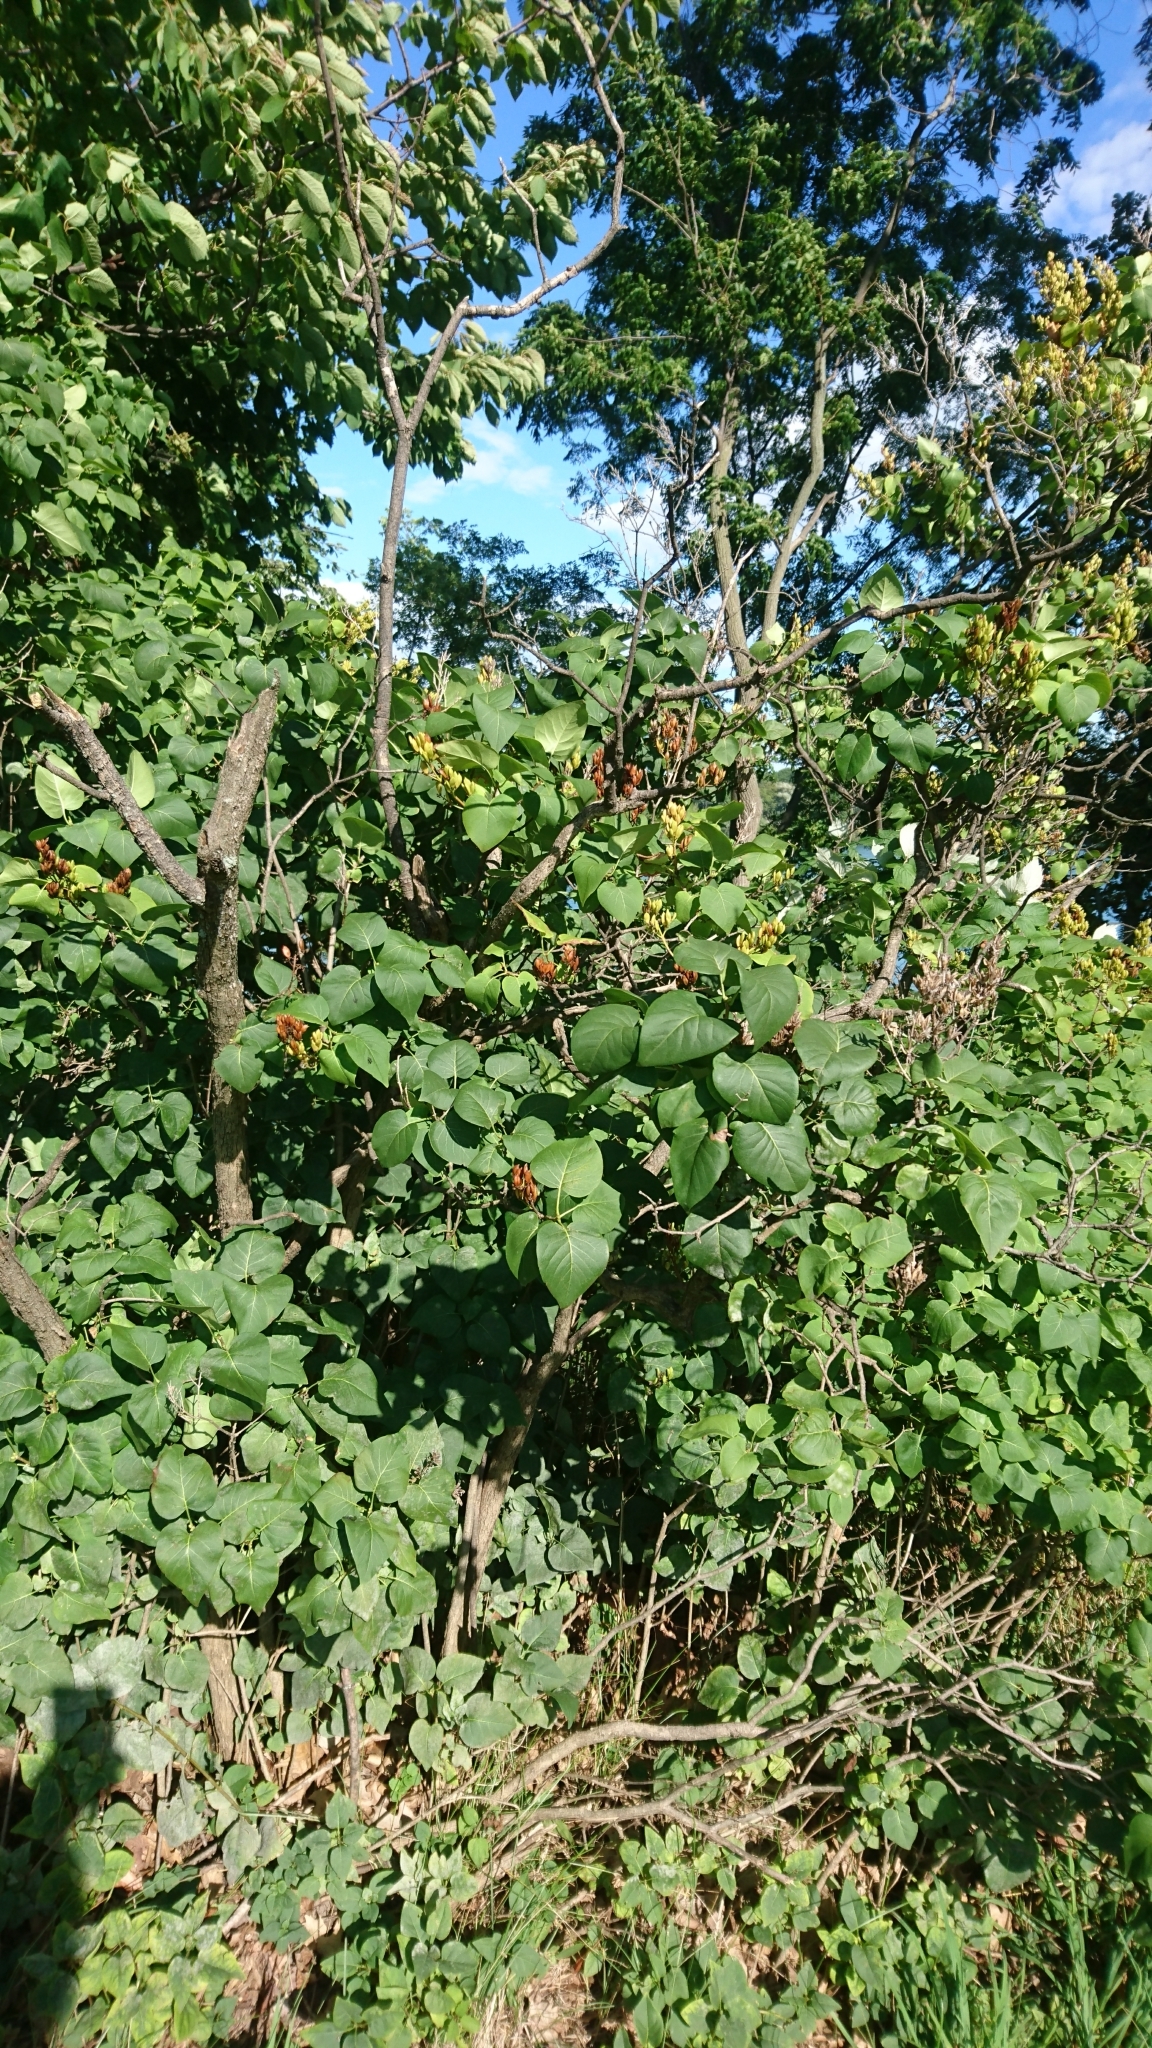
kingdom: Plantae
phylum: Tracheophyta
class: Magnoliopsida
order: Lamiales
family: Oleaceae
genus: Syringa
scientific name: Syringa vulgaris
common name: Common lilac
